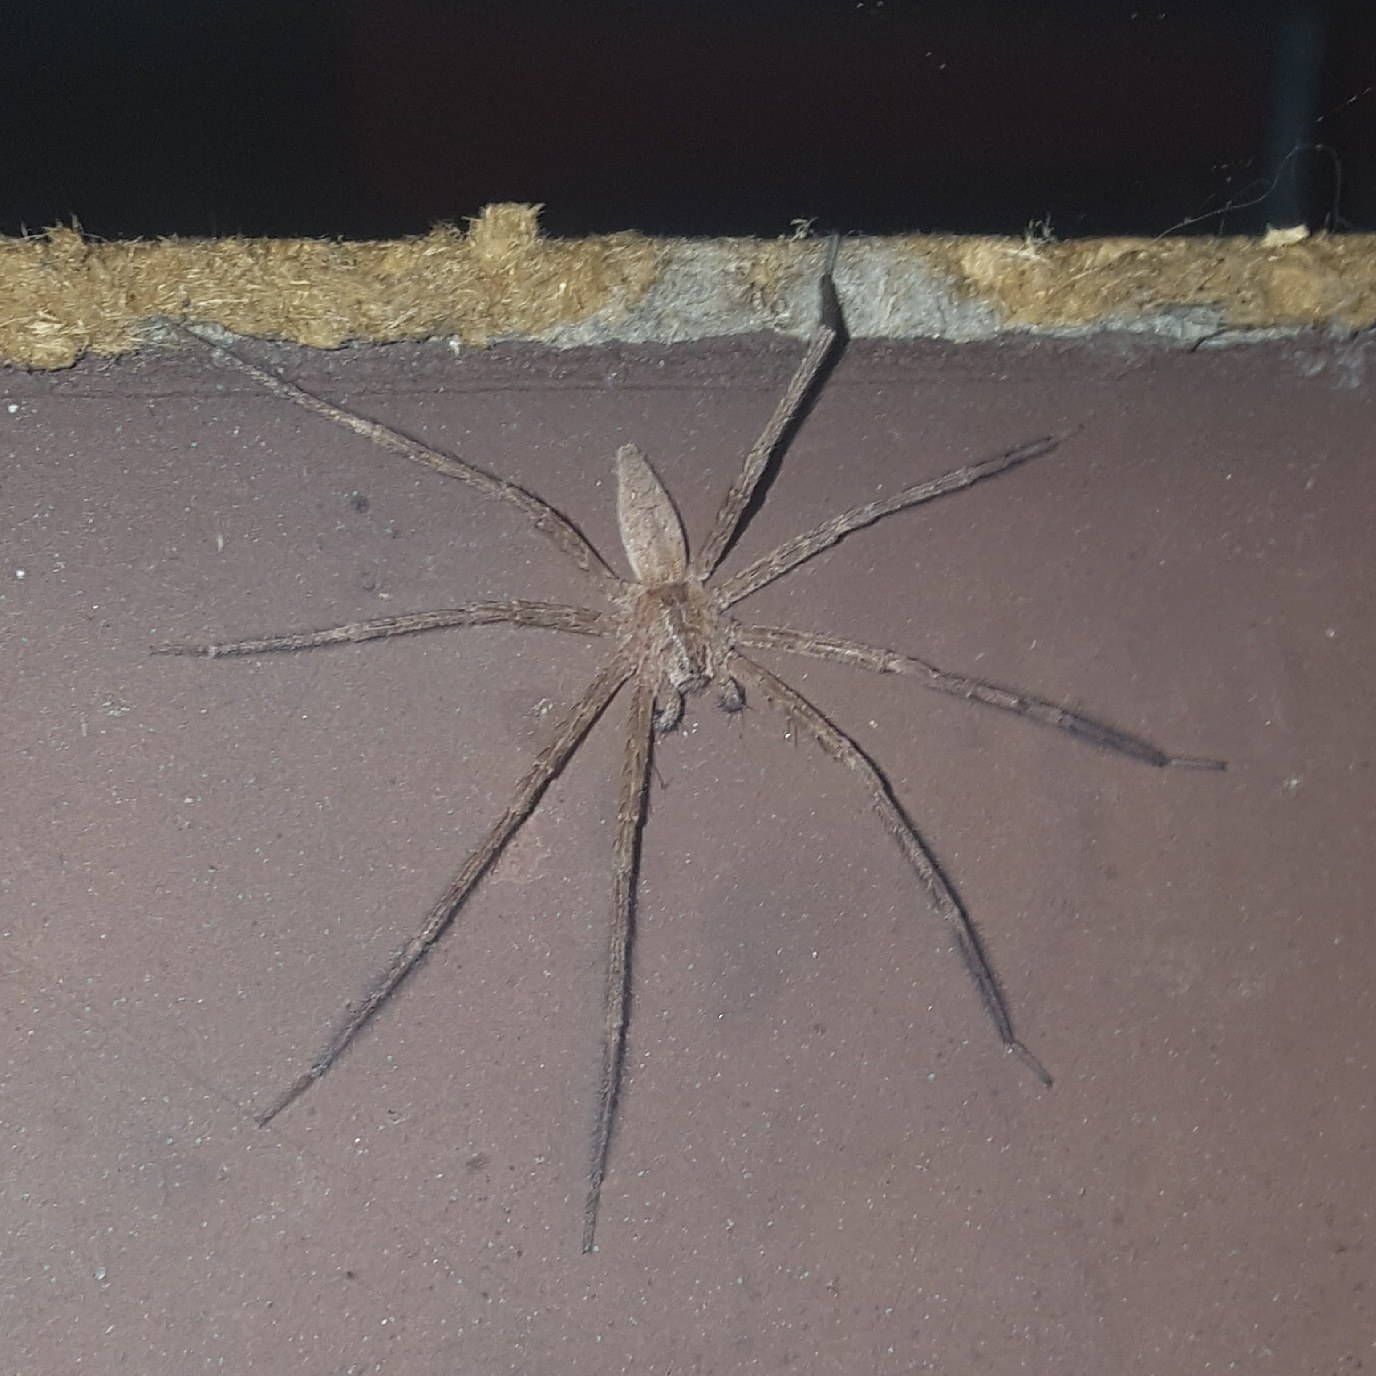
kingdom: Animalia
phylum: Arthropoda
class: Arachnida
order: Araneae
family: Pisauridae
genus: Pisaurina
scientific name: Pisaurina mira
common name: American nursery web spider
